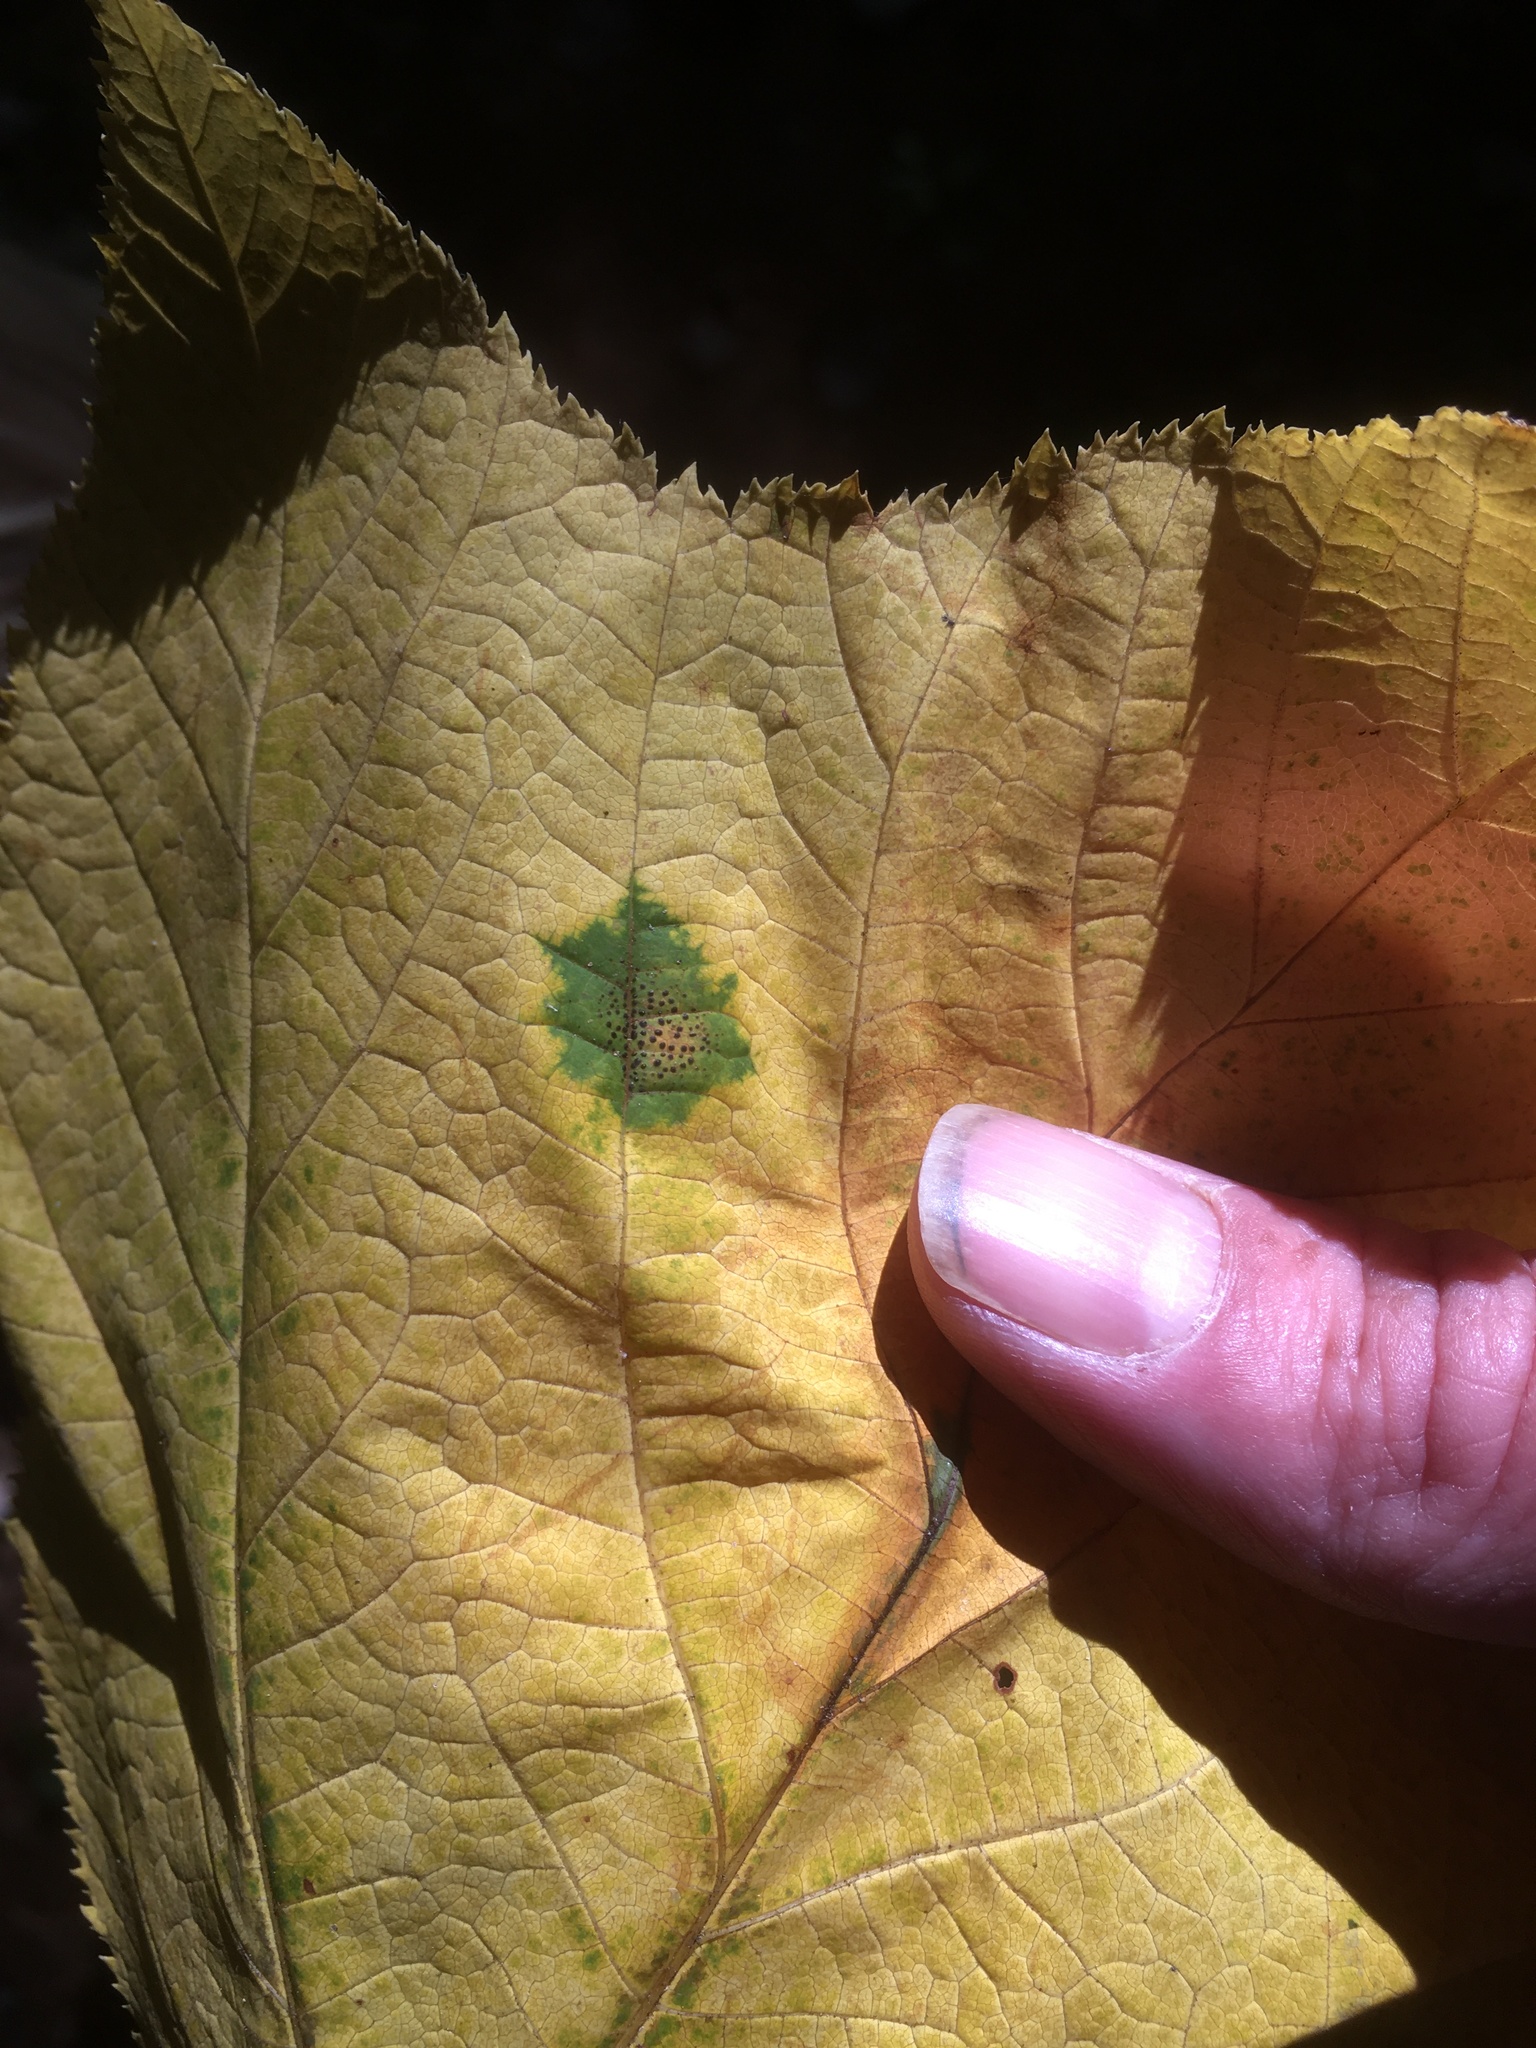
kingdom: Fungi
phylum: Ascomycota
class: Leotiomycetes
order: Rhytismatales
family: Rhytismataceae
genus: Rhytisma
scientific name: Rhytisma punctatum
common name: Speckled tar spot
